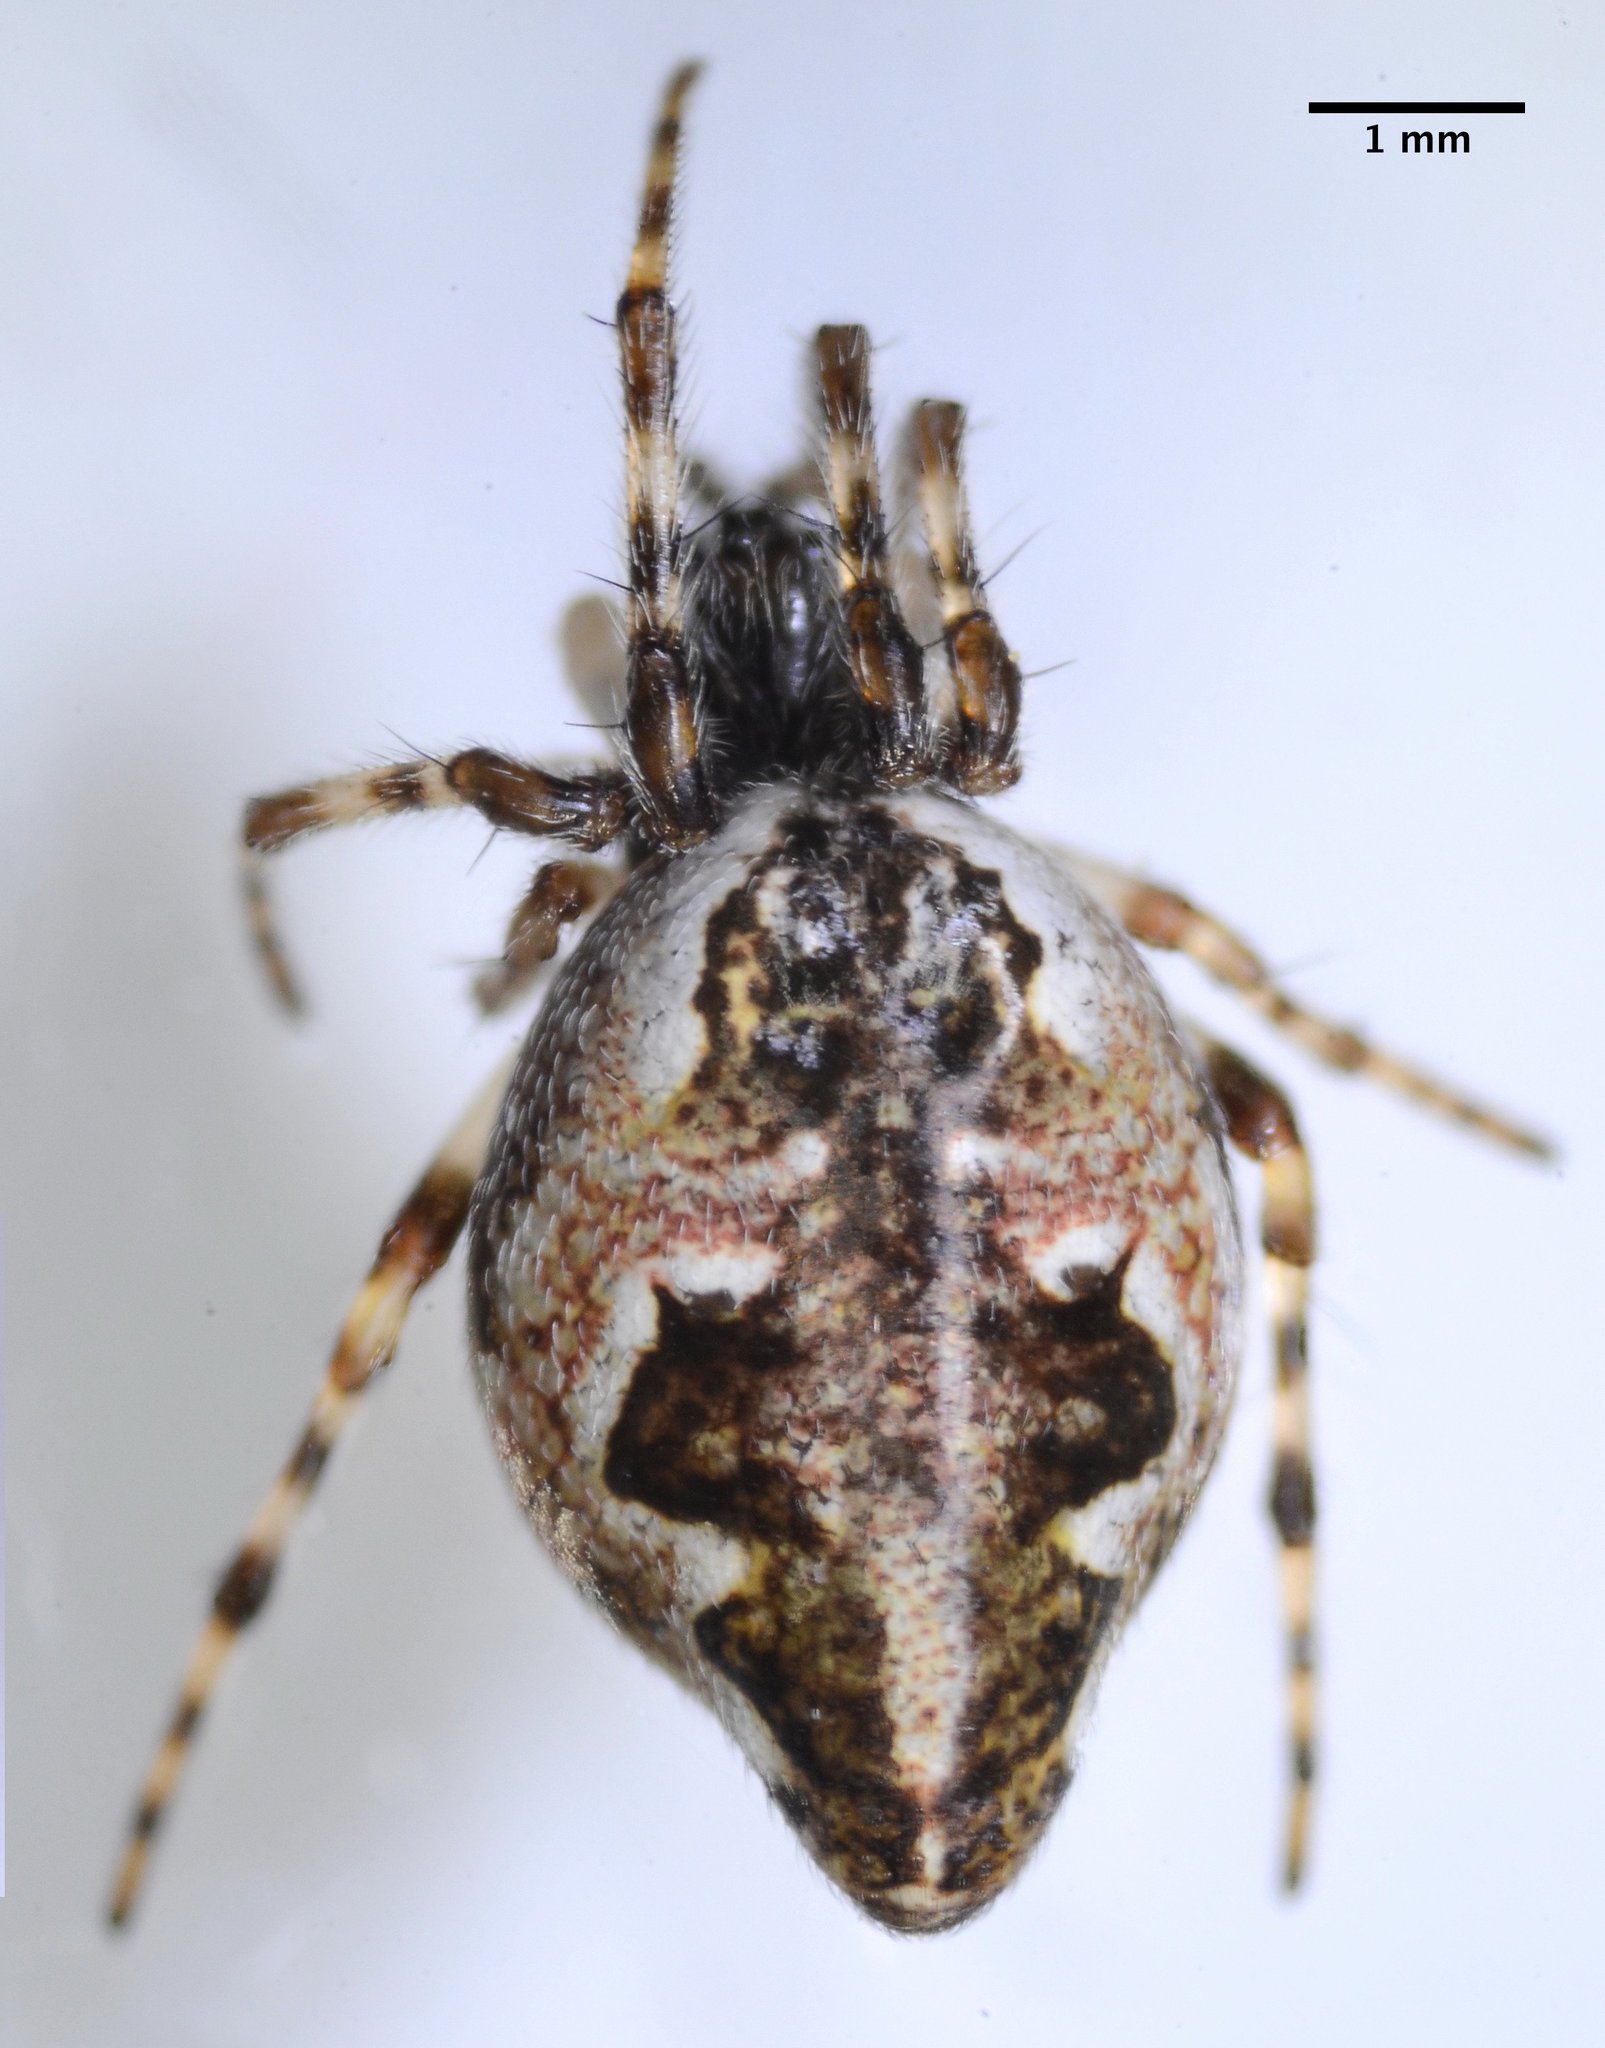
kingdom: Animalia
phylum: Arthropoda
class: Arachnida
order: Araneae
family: Araneidae
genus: Cyclosa
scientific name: Cyclosa conica
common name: Conical trashline orbweaver
